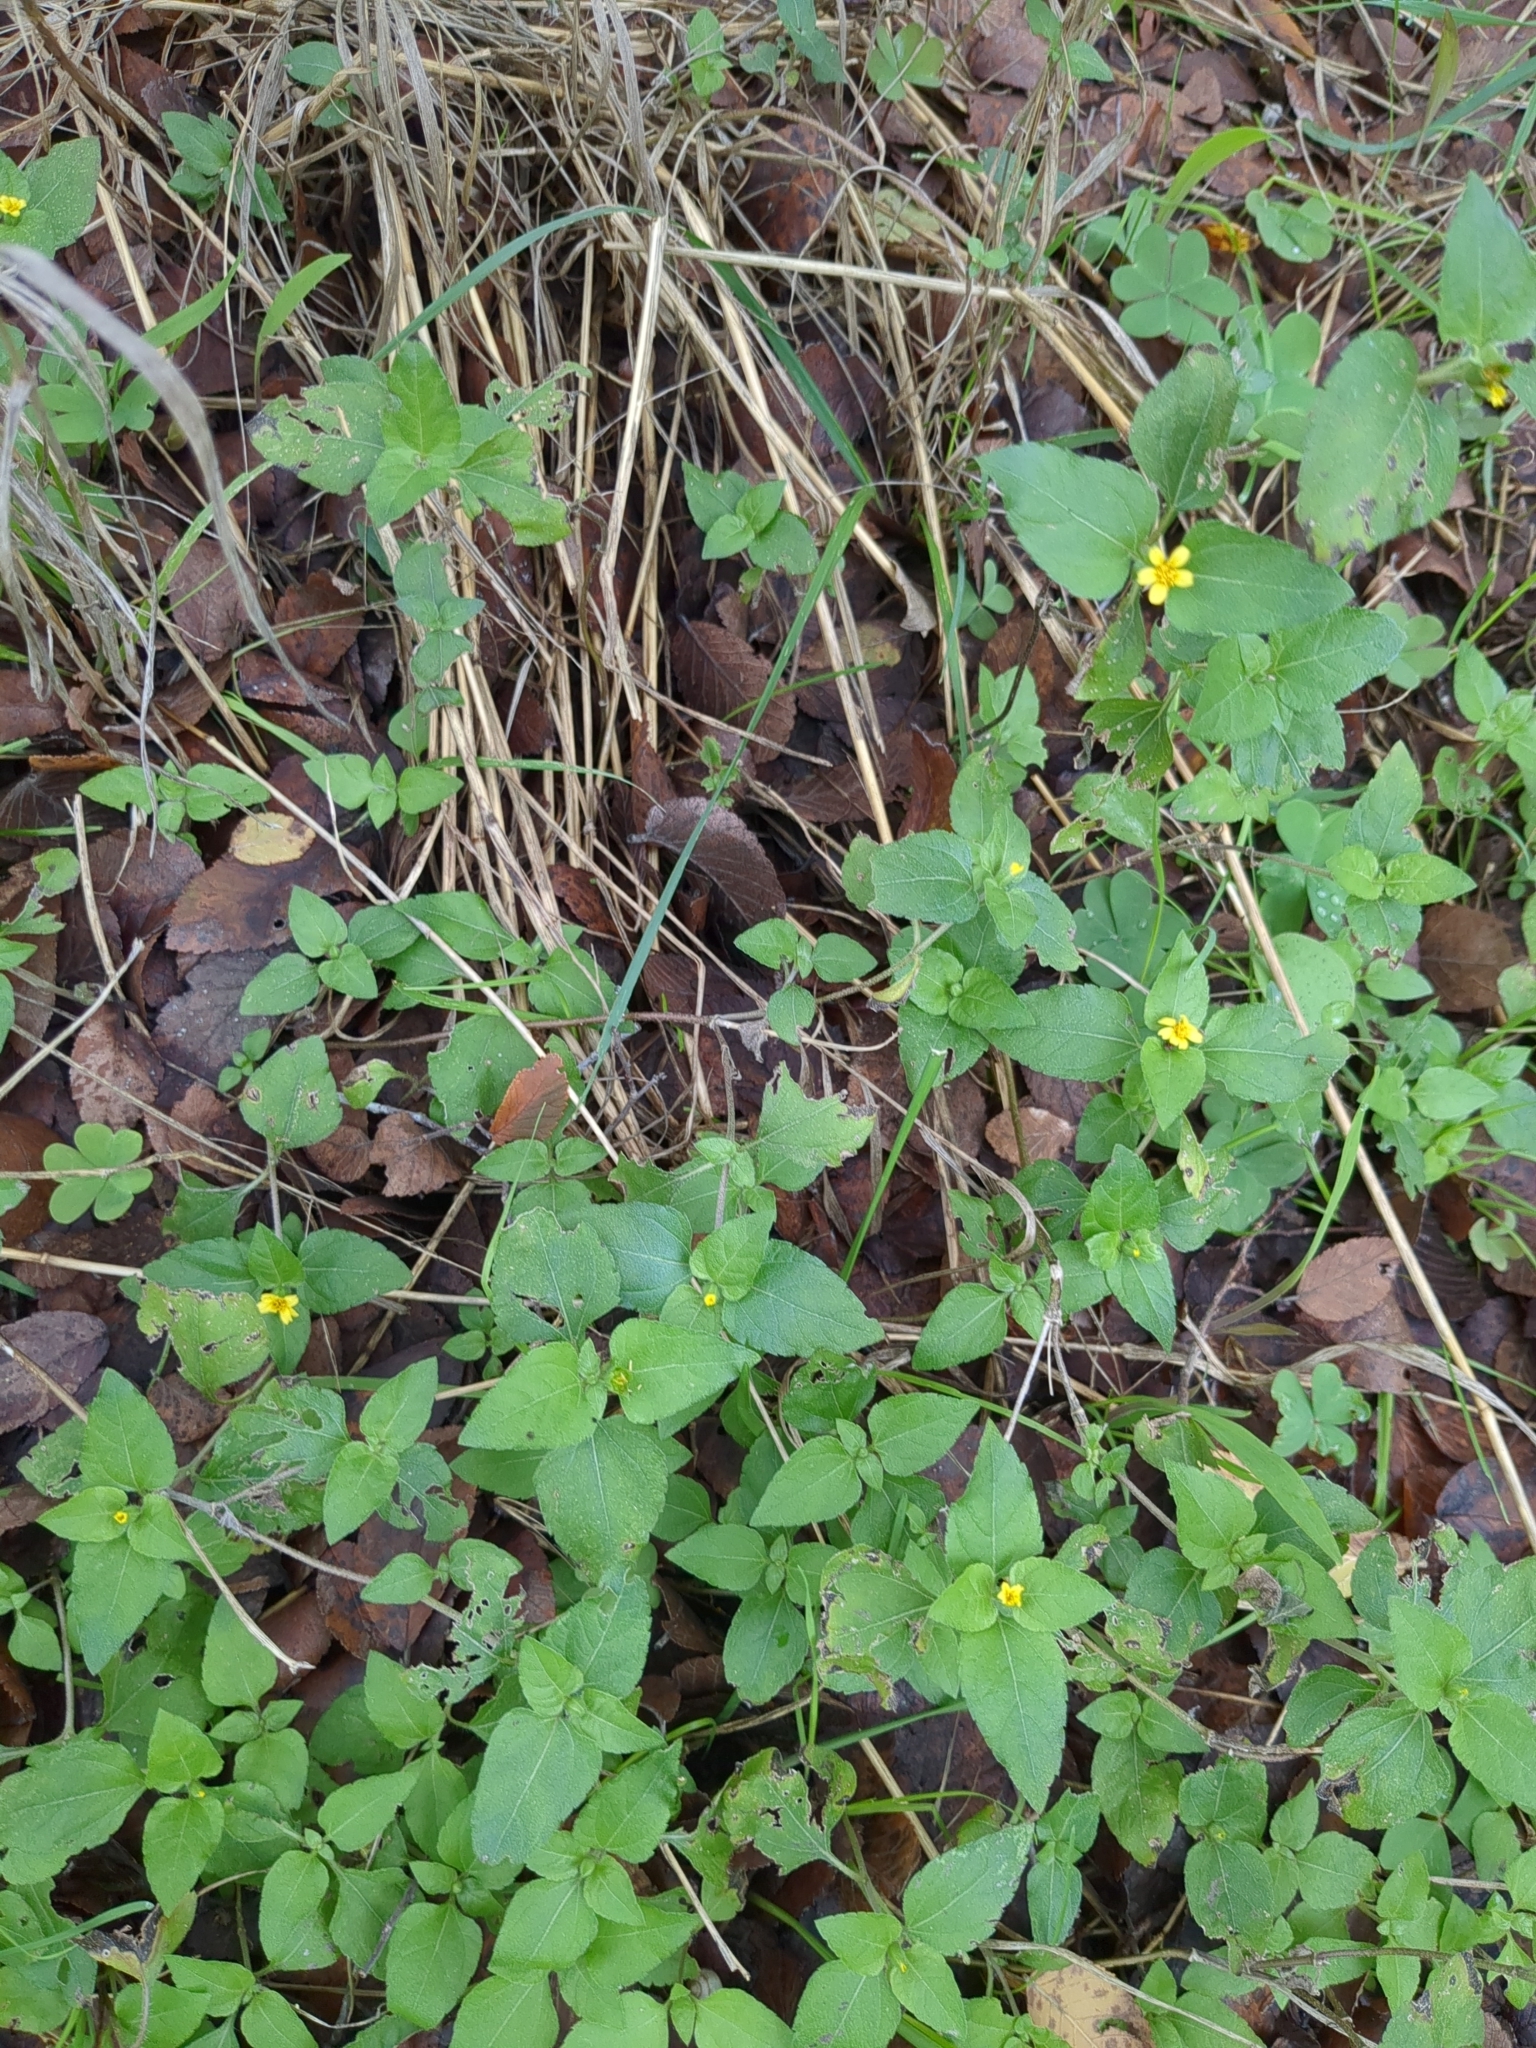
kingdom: Plantae
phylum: Tracheophyta
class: Magnoliopsida
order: Asterales
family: Asteraceae
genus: Calyptocarpus
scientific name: Calyptocarpus vialis
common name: Straggler daisy
